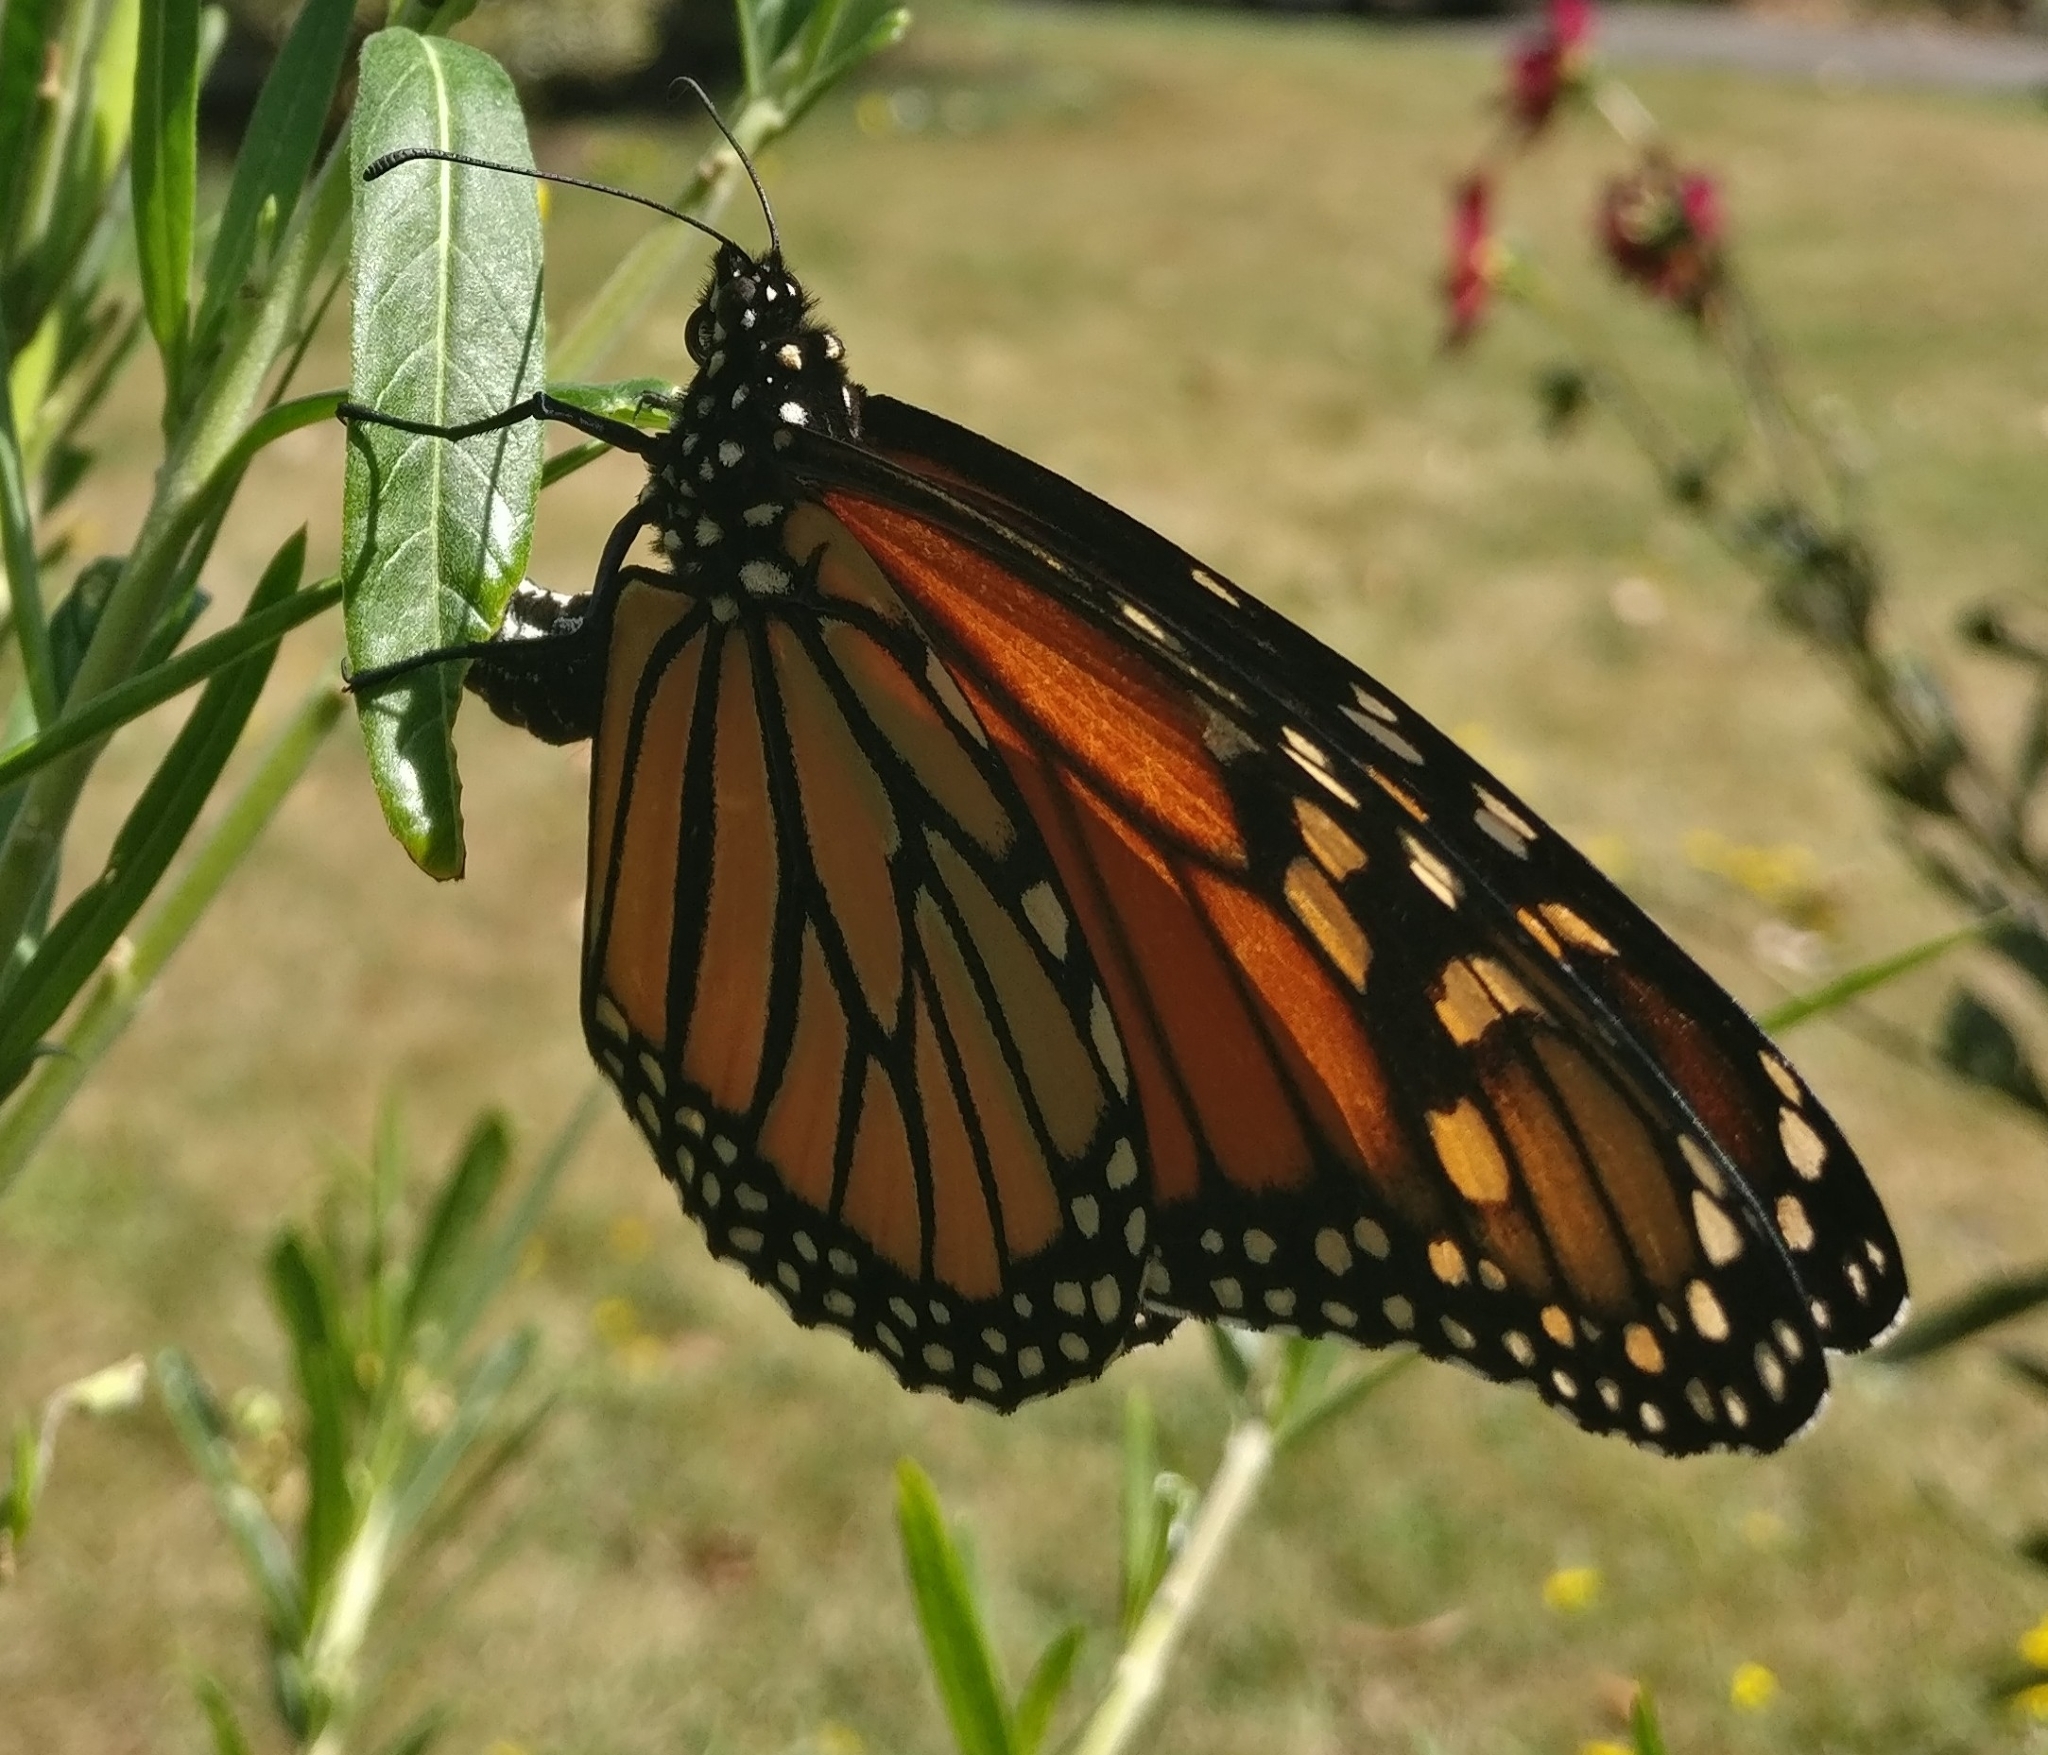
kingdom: Animalia
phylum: Arthropoda
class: Insecta
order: Lepidoptera
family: Nymphalidae
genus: Danaus
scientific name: Danaus plexippus
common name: Monarch
